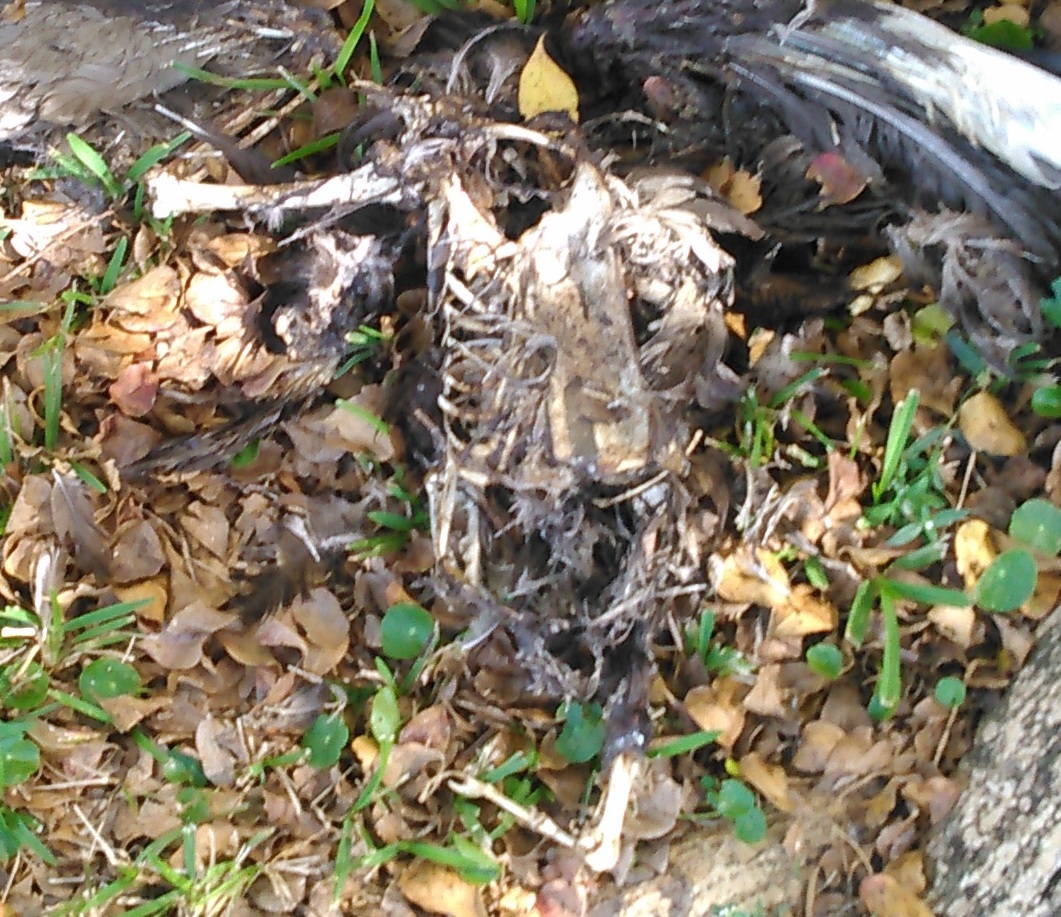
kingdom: Animalia
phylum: Chordata
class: Aves
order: Anseriformes
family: Anatidae
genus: Cairina
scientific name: Cairina moschata
